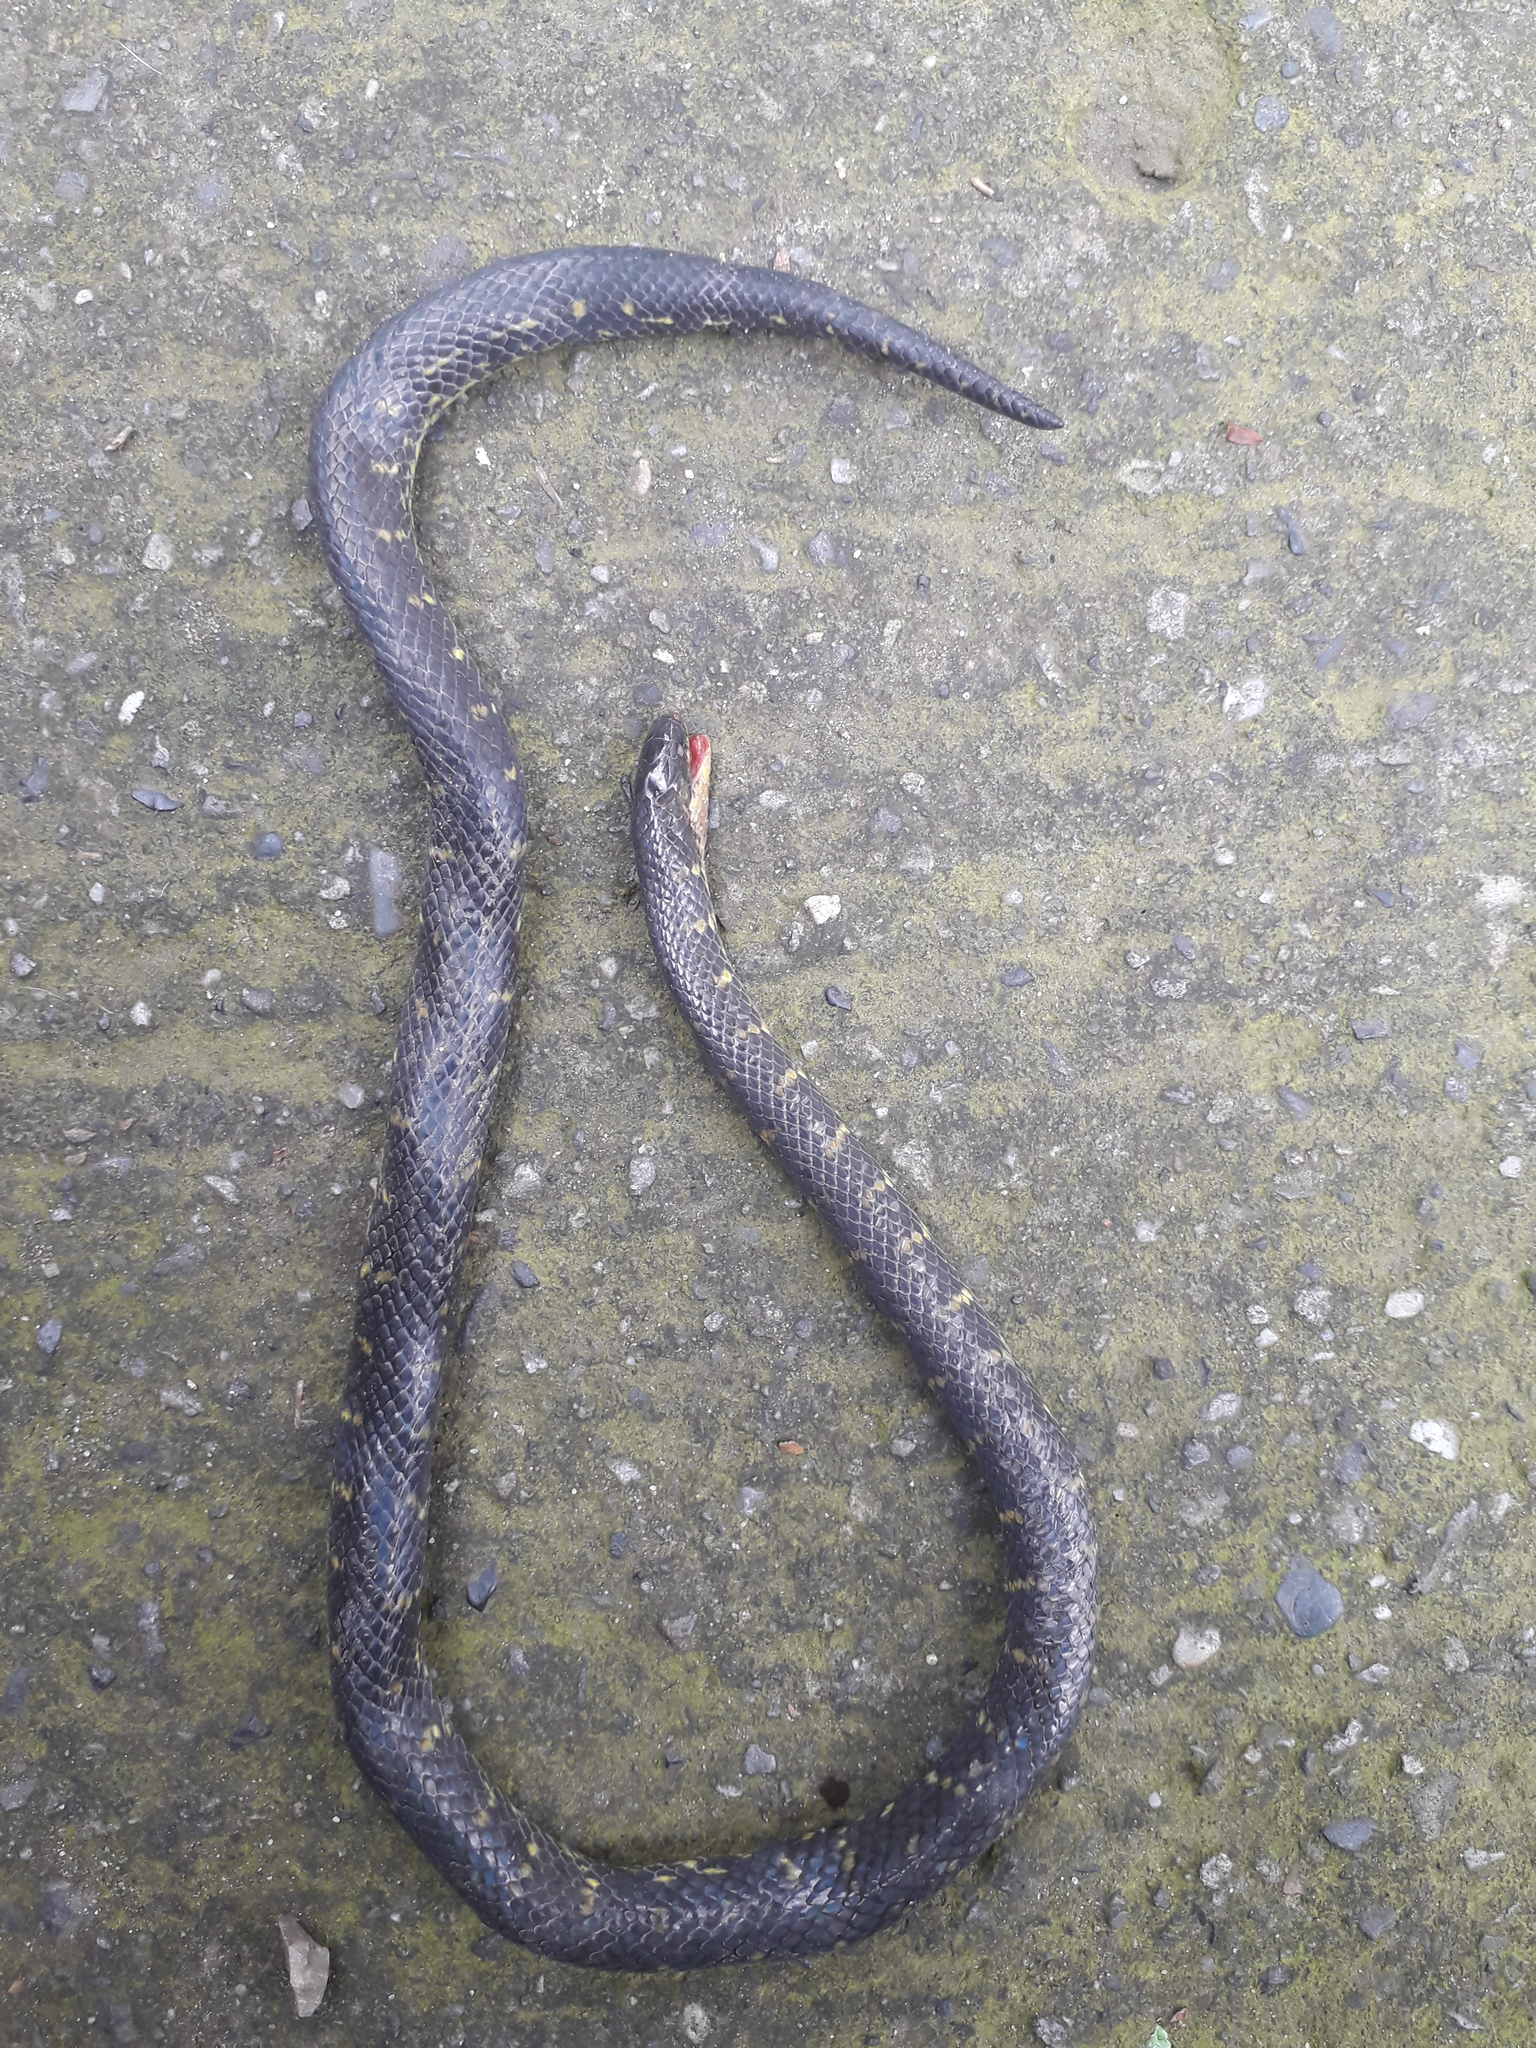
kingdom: Animalia
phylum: Chordata
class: Squamata
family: Colubridae
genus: Atractus
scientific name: Atractus crassicaudatus
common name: Thickhead ground snake
